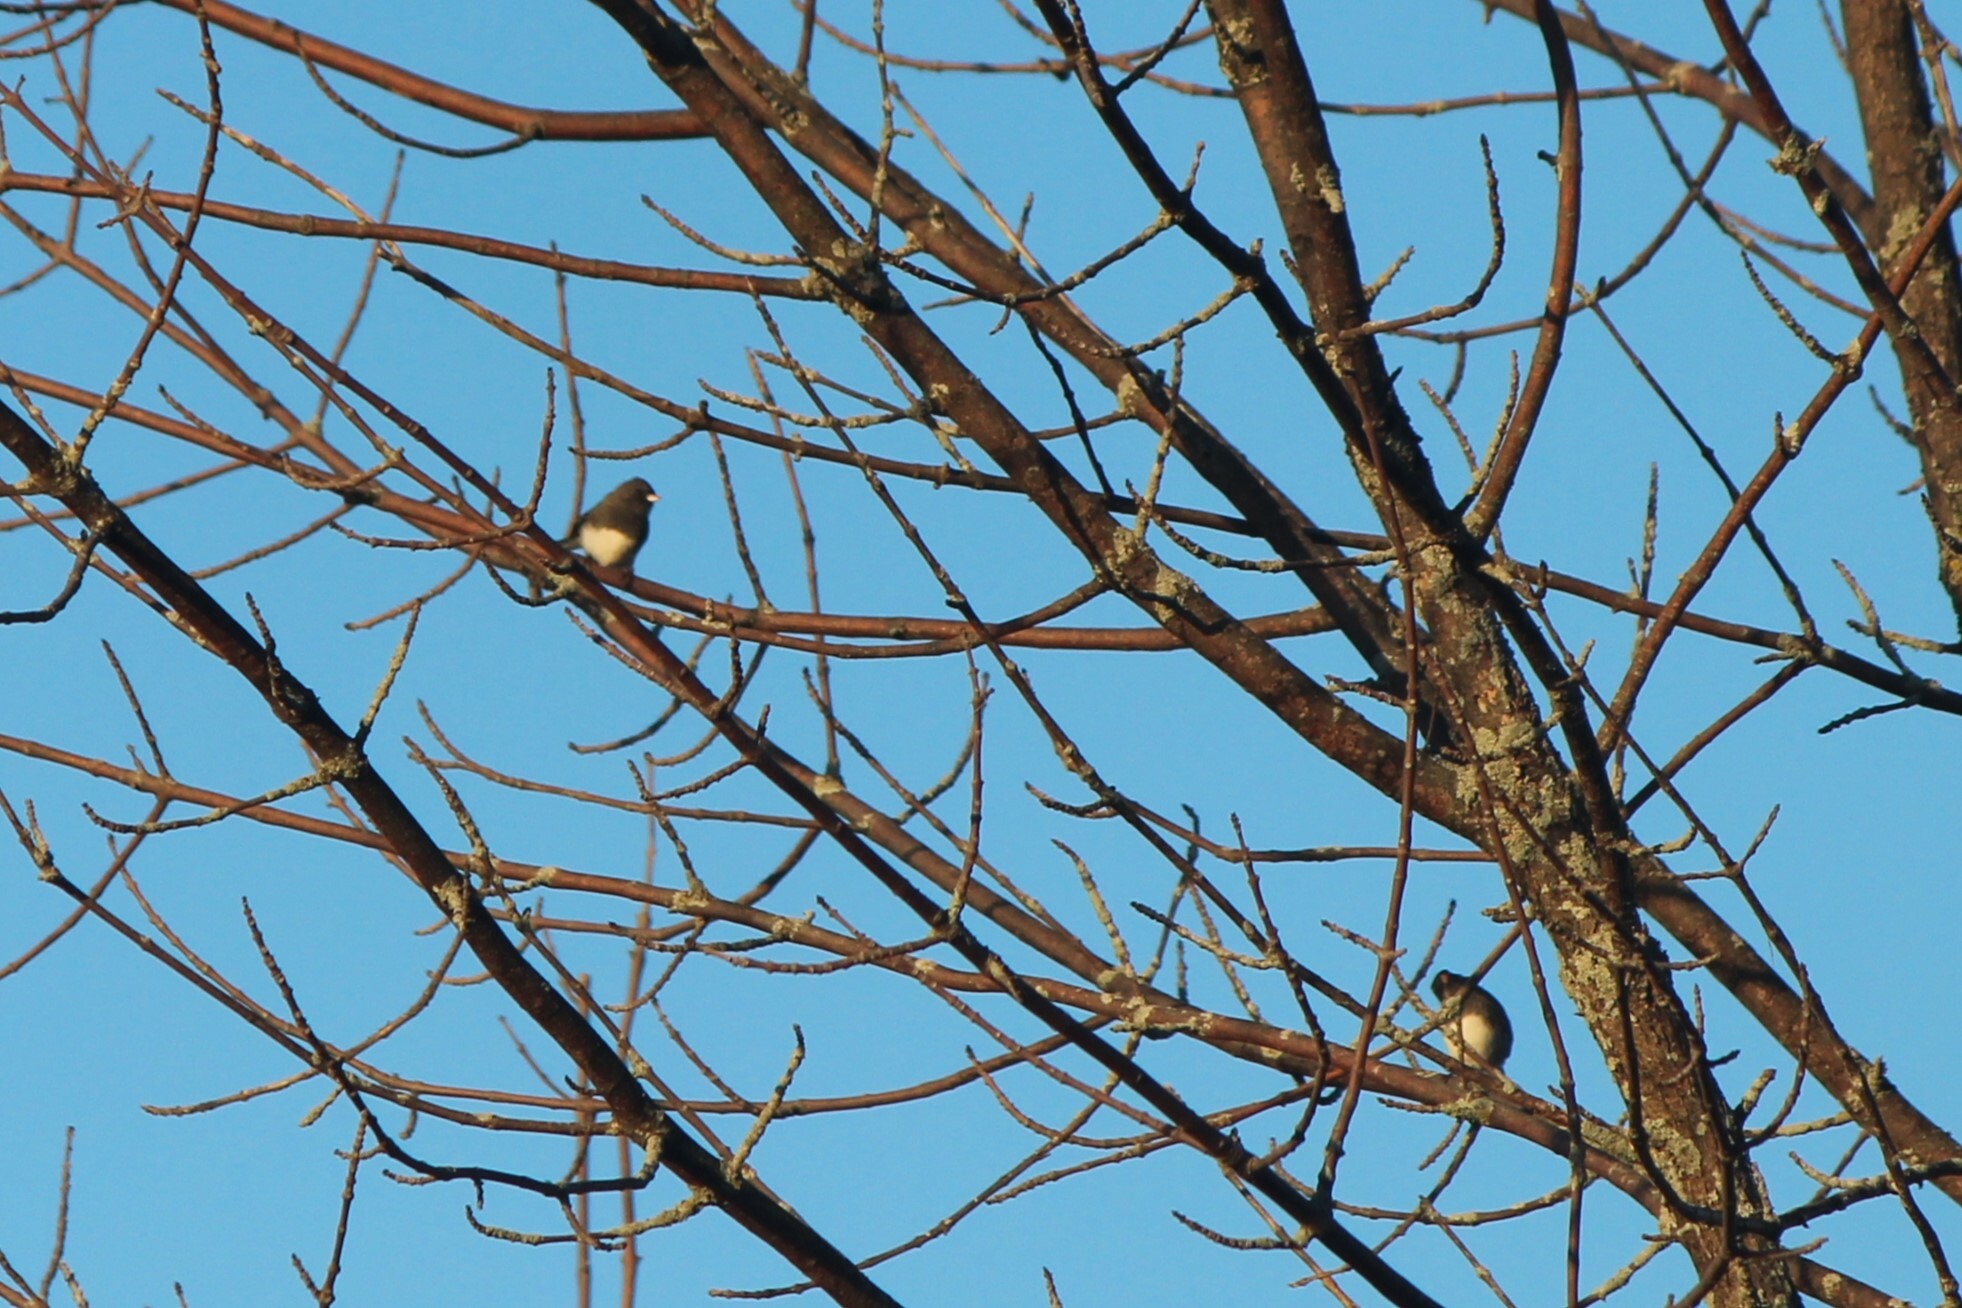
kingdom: Animalia
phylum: Chordata
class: Aves
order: Passeriformes
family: Passerellidae
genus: Junco
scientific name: Junco hyemalis
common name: Dark-eyed junco
